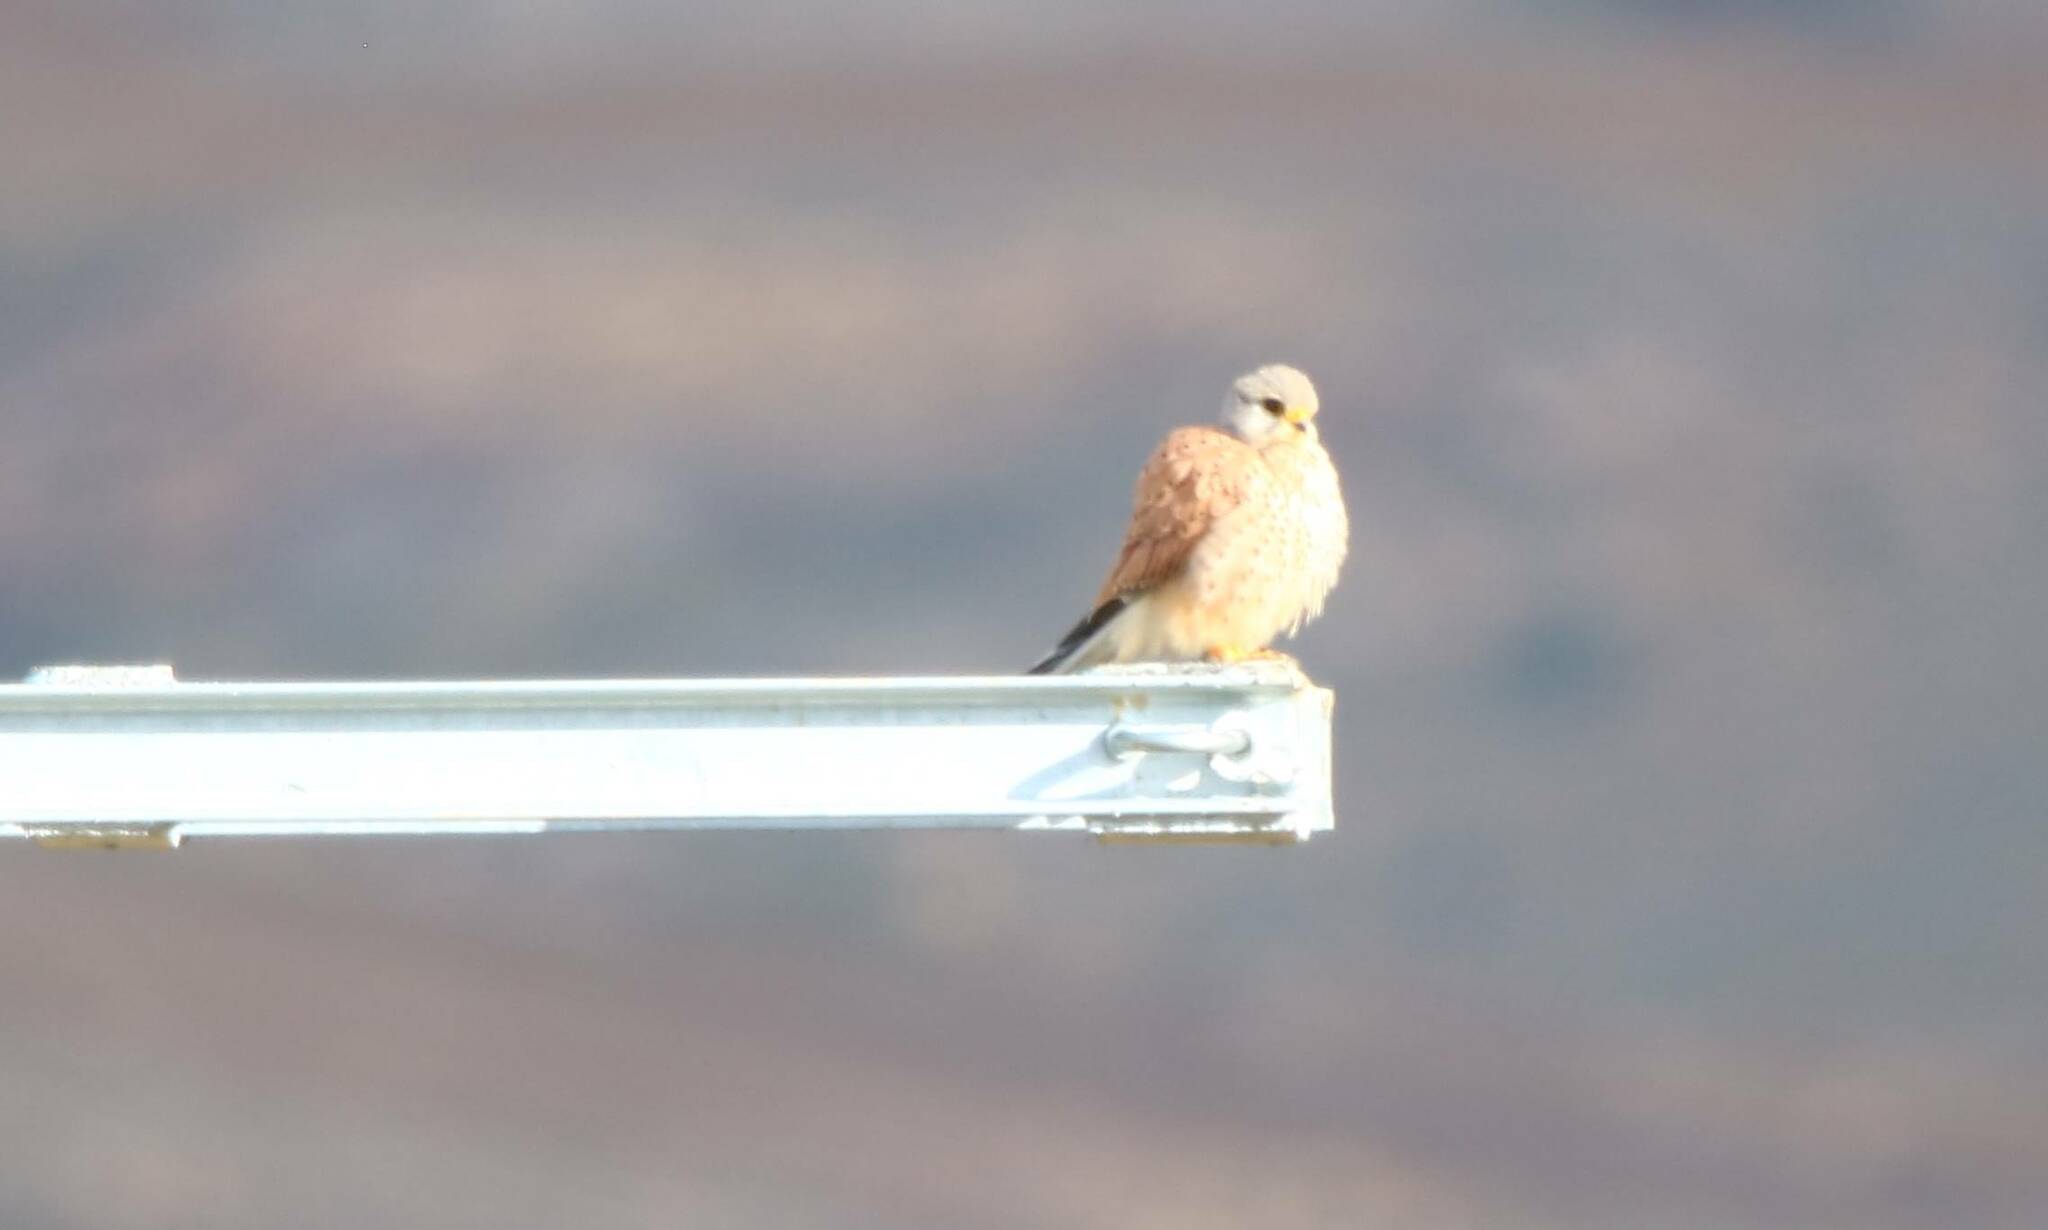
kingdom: Animalia
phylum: Chordata
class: Aves
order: Falconiformes
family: Falconidae
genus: Falco
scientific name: Falco tinnunculus
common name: Common kestrel
